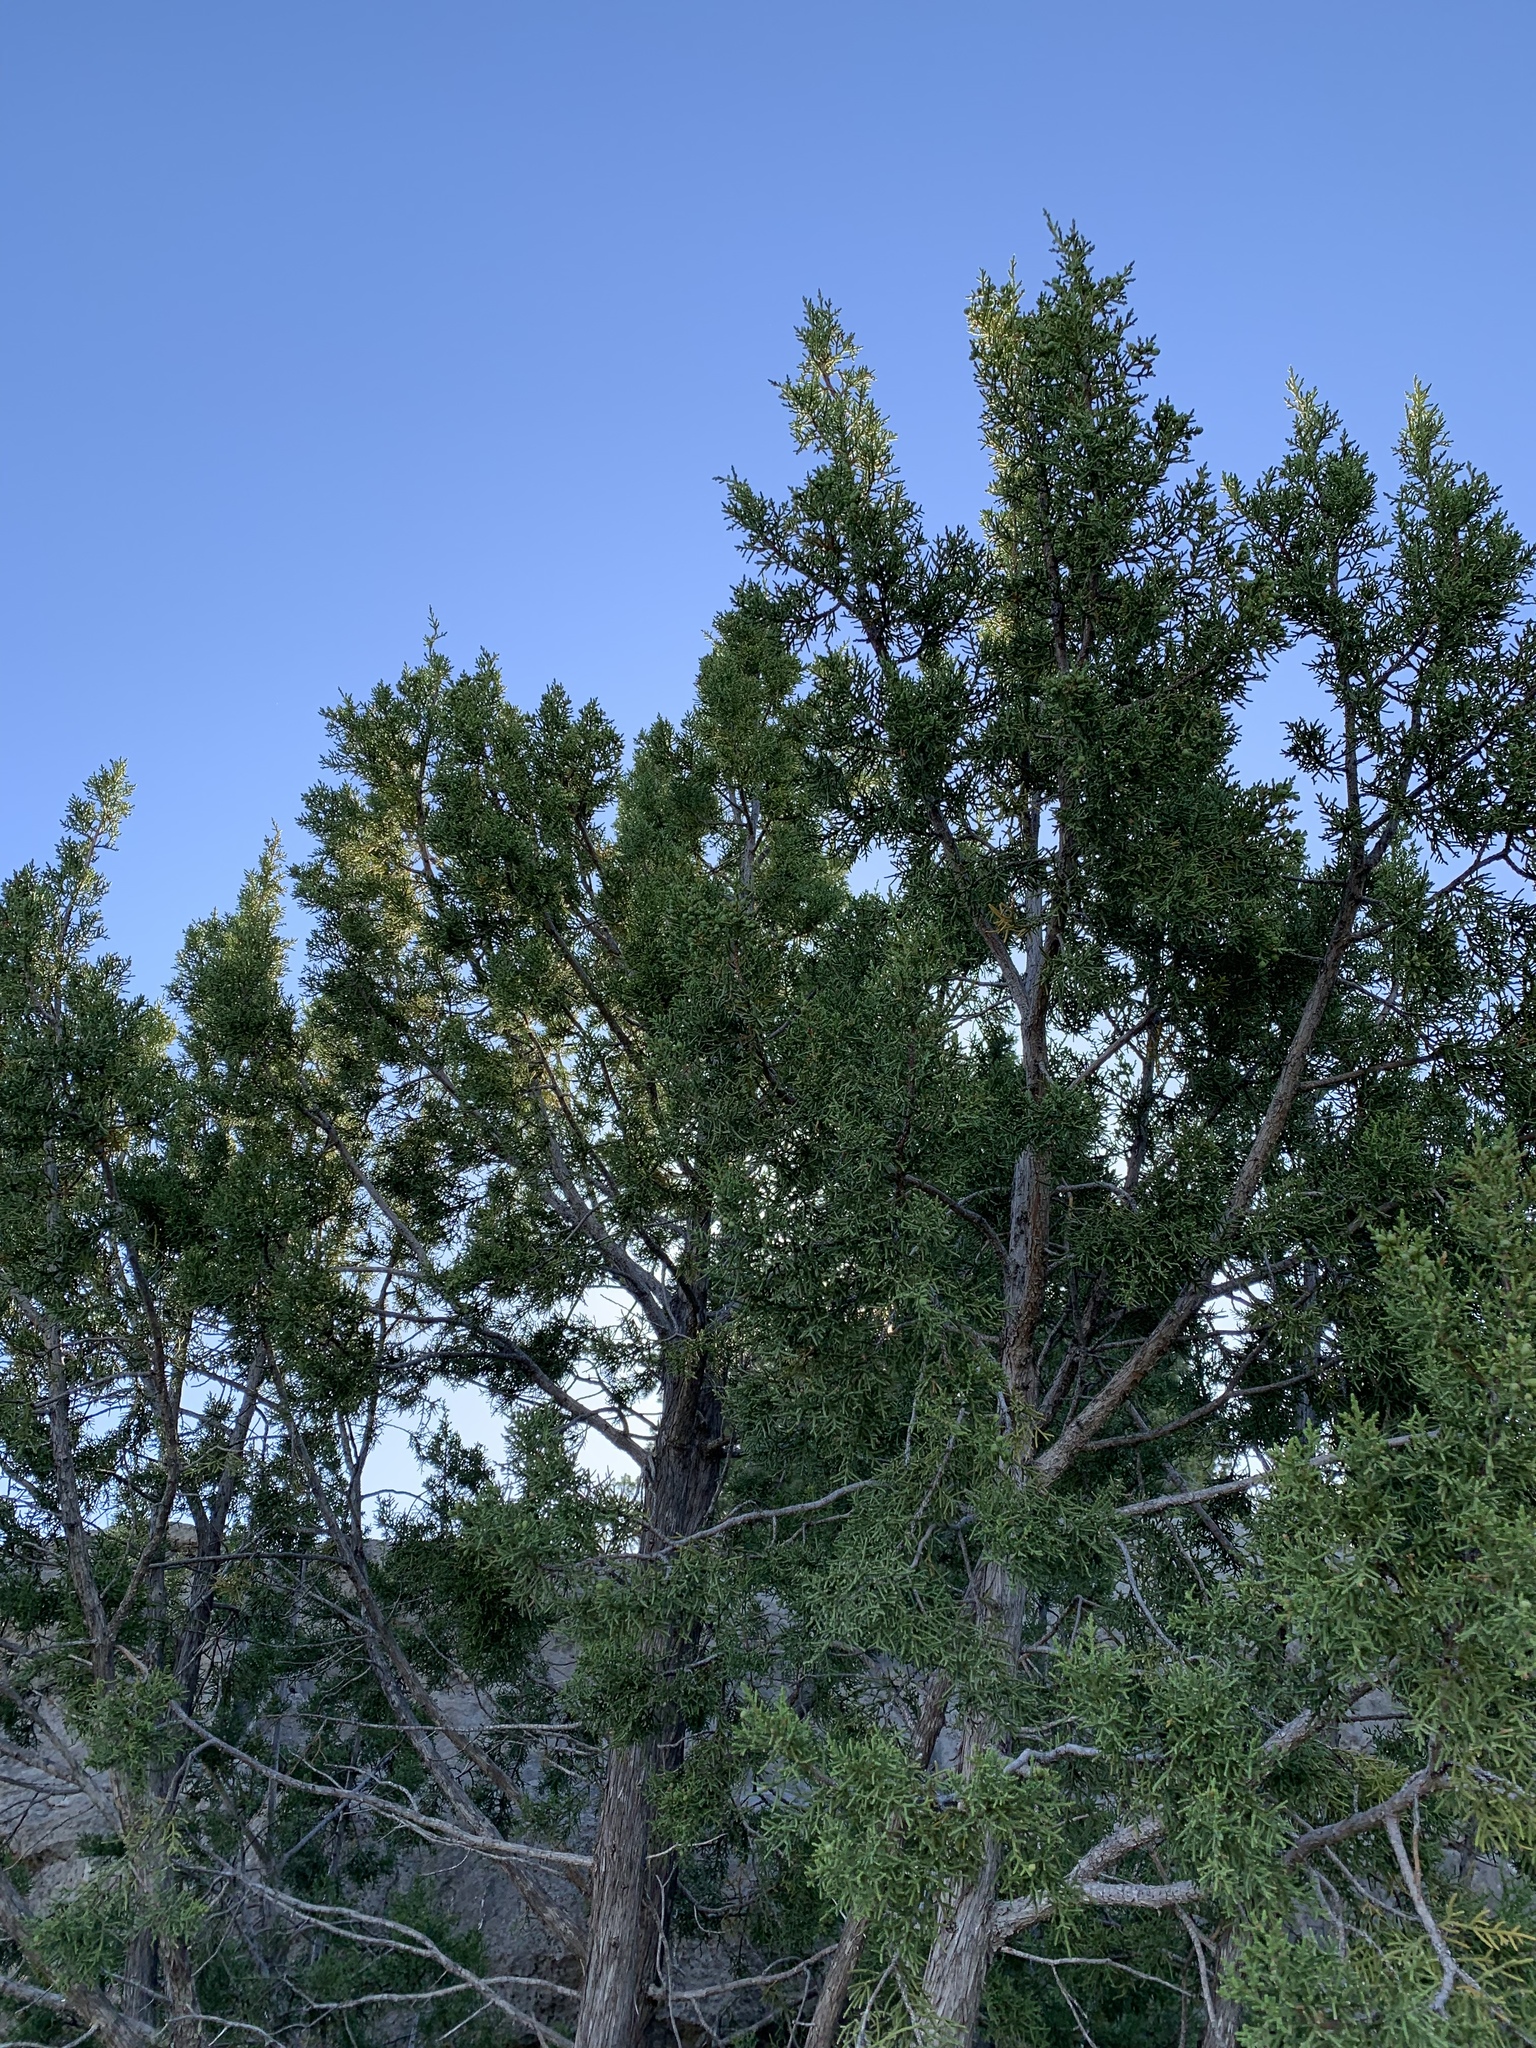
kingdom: Plantae
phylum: Tracheophyta
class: Pinopsida
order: Pinales
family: Cupressaceae
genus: Juniperus
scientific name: Juniperus monosperma
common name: One-seed juniper
